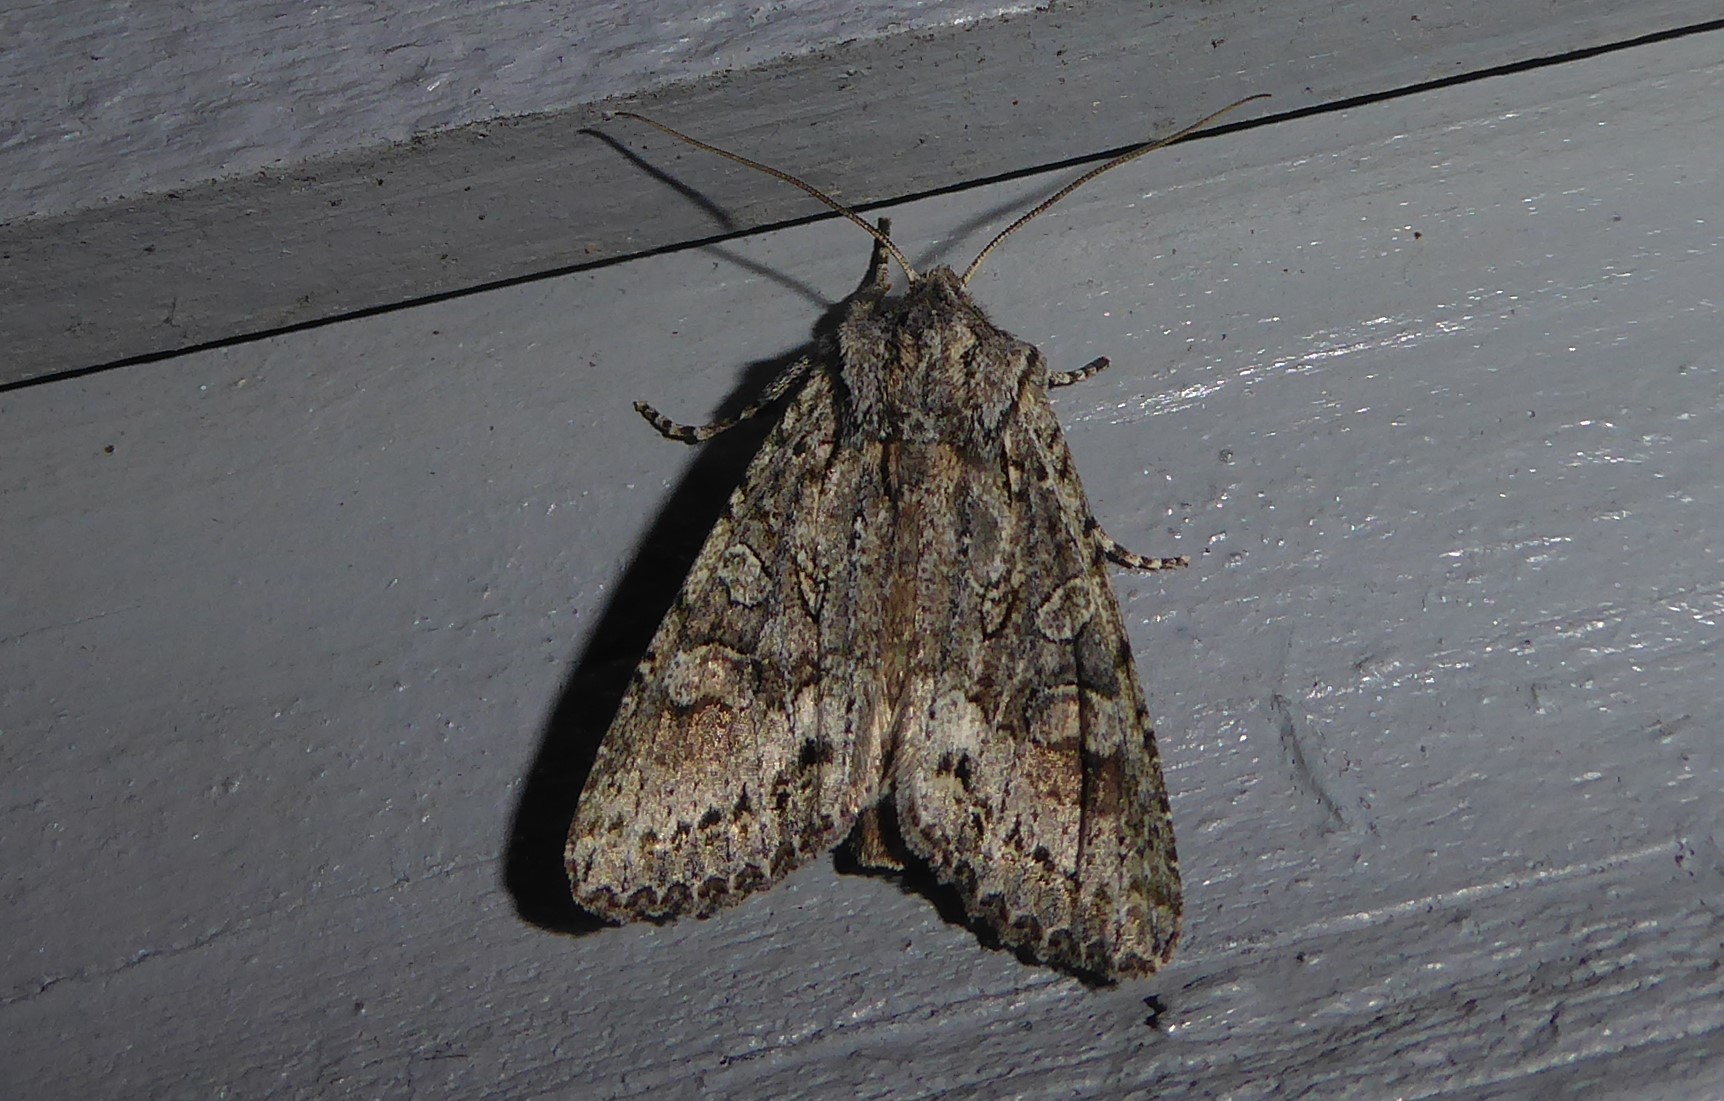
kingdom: Animalia
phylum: Arthropoda
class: Insecta
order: Lepidoptera
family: Noctuidae
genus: Ichneutica
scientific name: Ichneutica mutans
